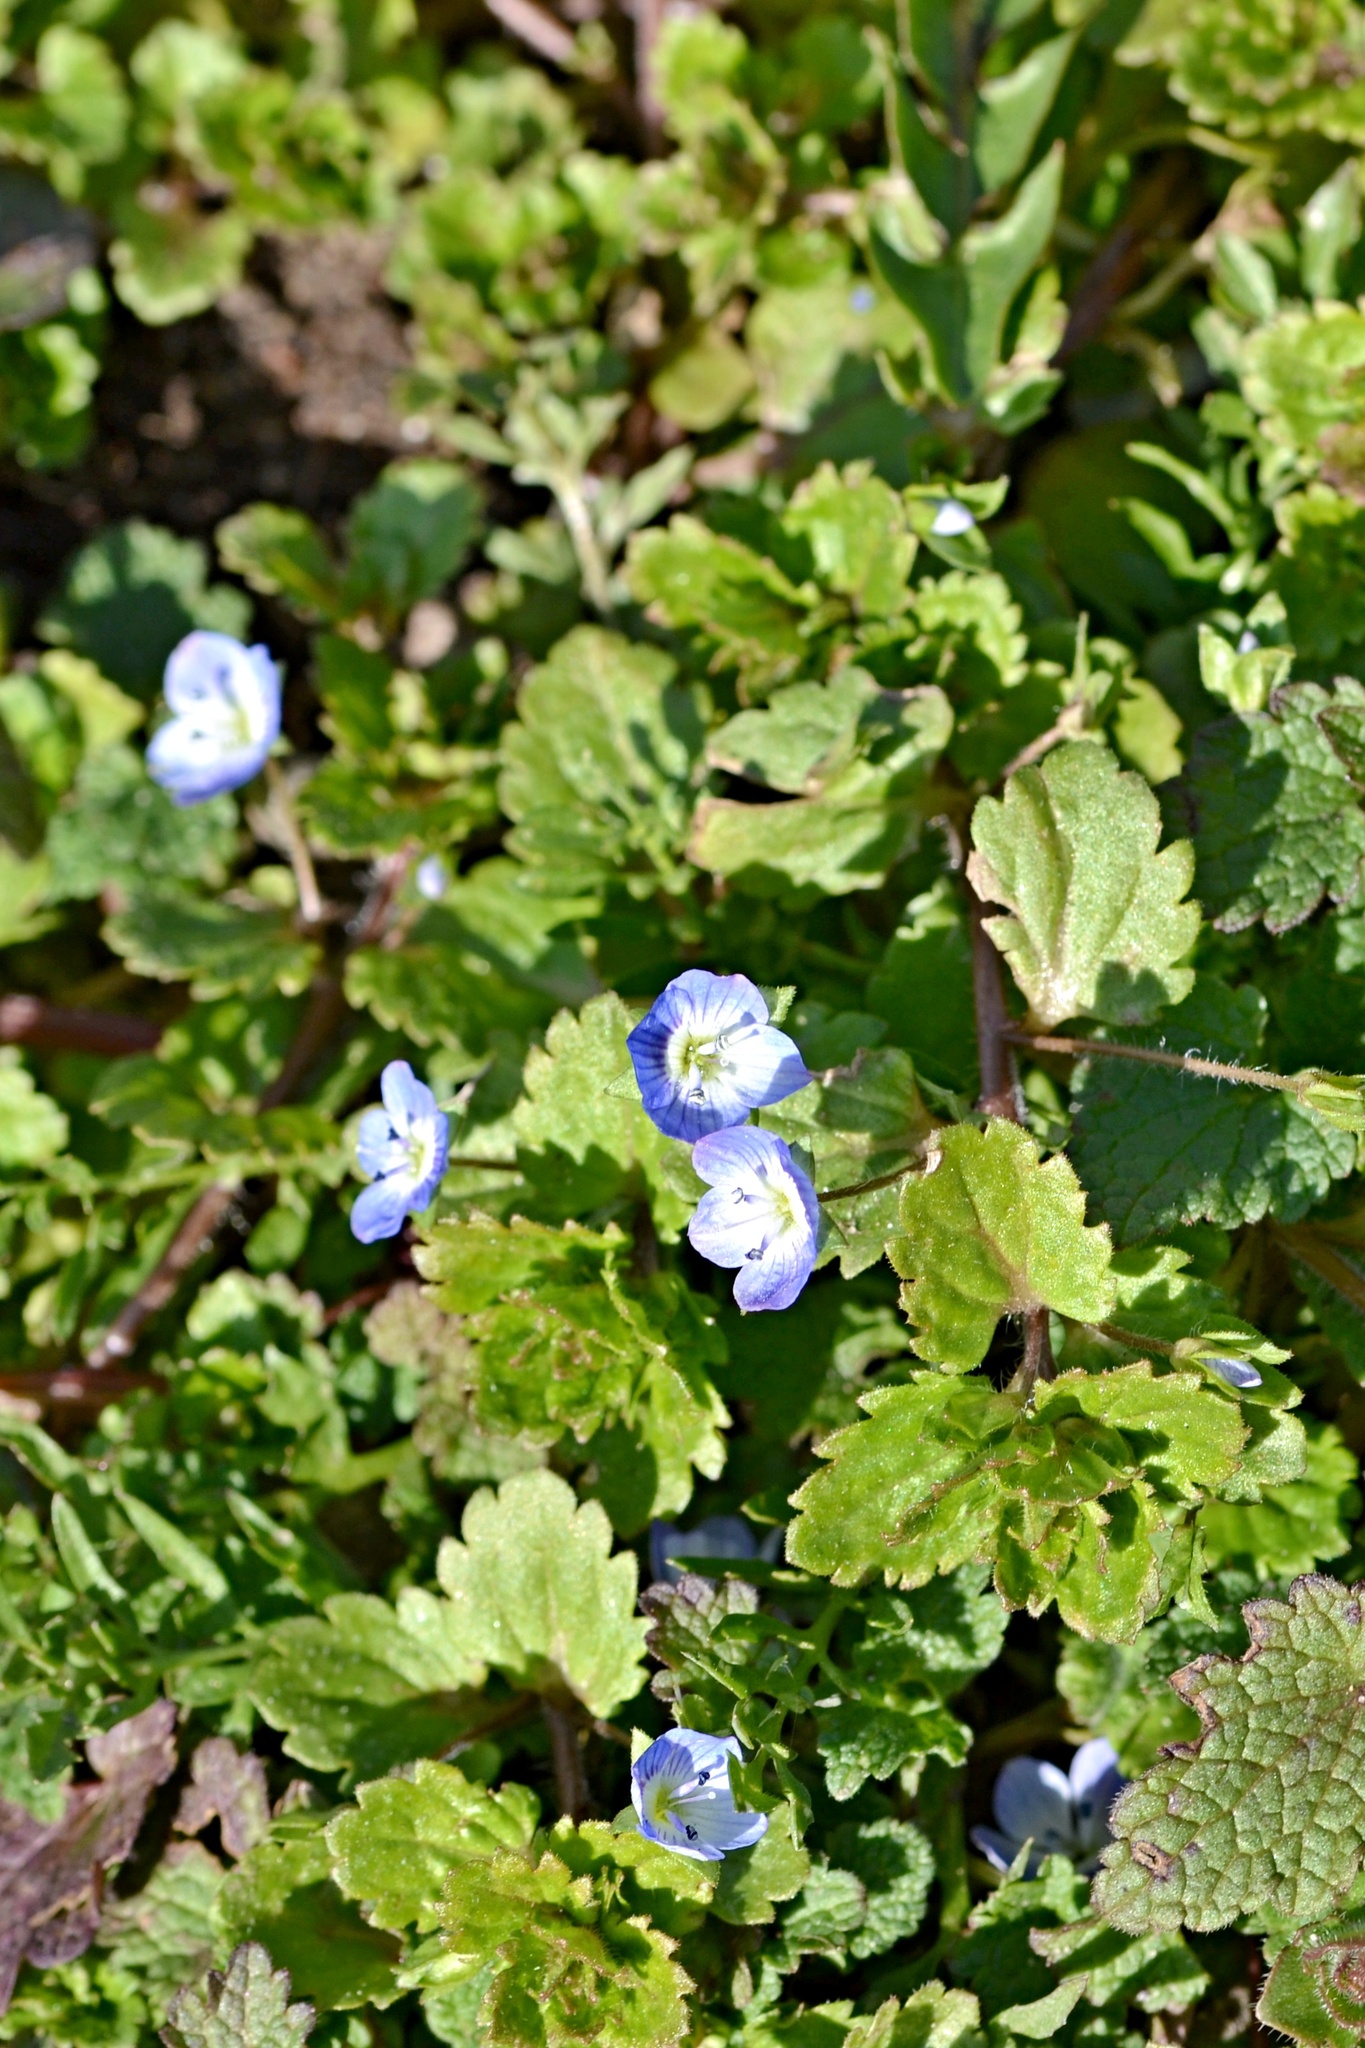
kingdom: Plantae
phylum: Tracheophyta
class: Magnoliopsida
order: Lamiales
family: Plantaginaceae
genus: Veronica
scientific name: Veronica persica
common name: Common field-speedwell
